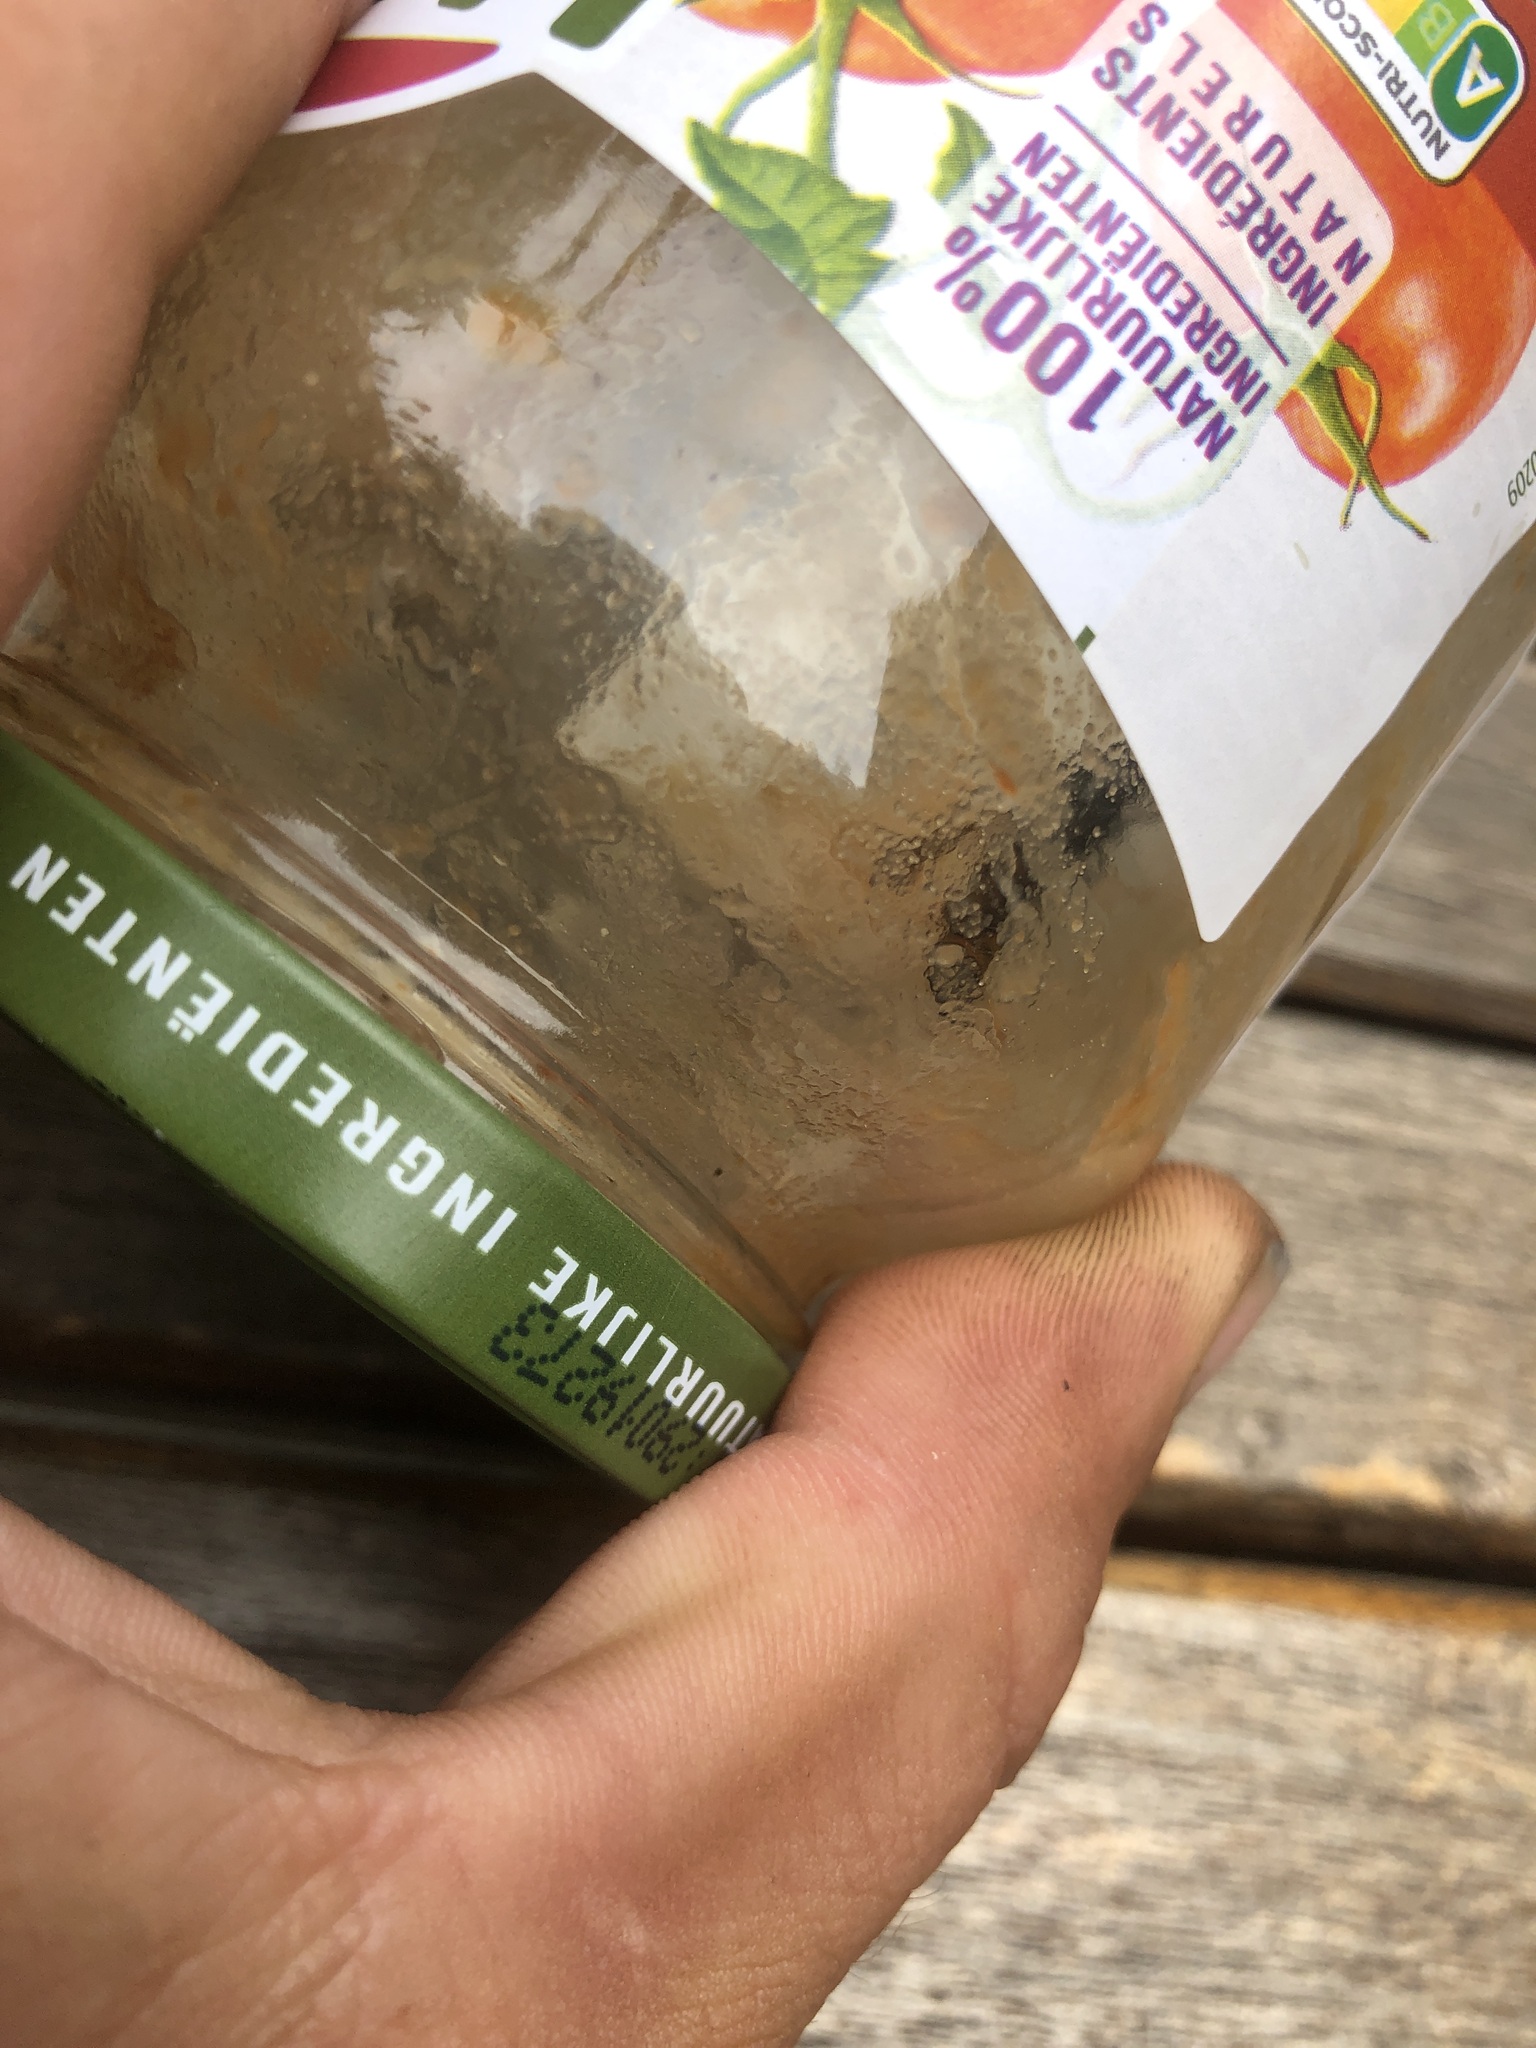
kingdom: Animalia
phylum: Arthropoda
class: Insecta
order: Hymenoptera
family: Vespidae
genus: Vespa
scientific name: Vespa velutina
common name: Asian hornet
